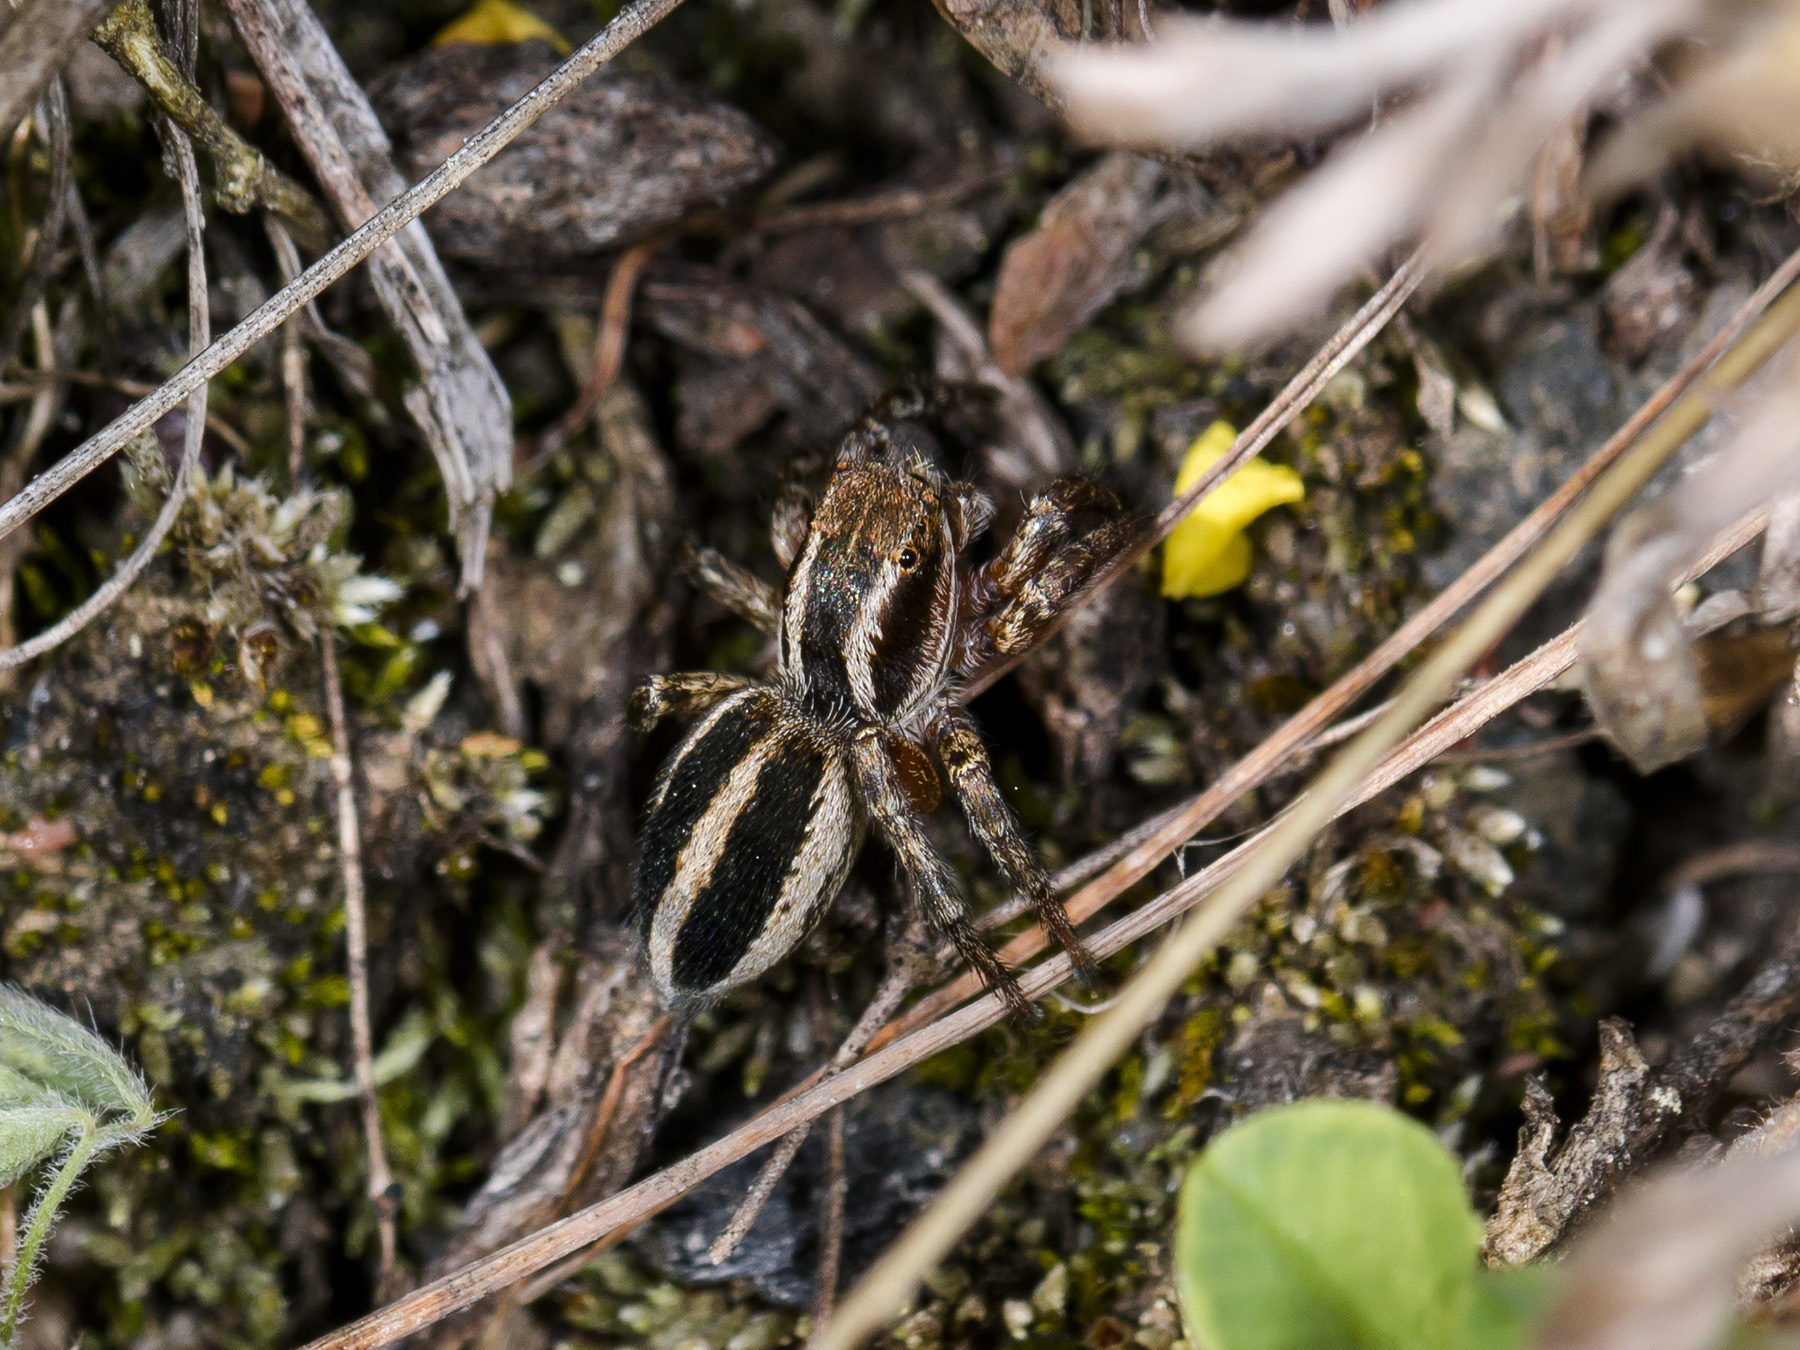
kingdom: Animalia
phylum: Arthropoda
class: Arachnida
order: Araneae
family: Salticidae
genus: Phlegra
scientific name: Phlegra fasciata
